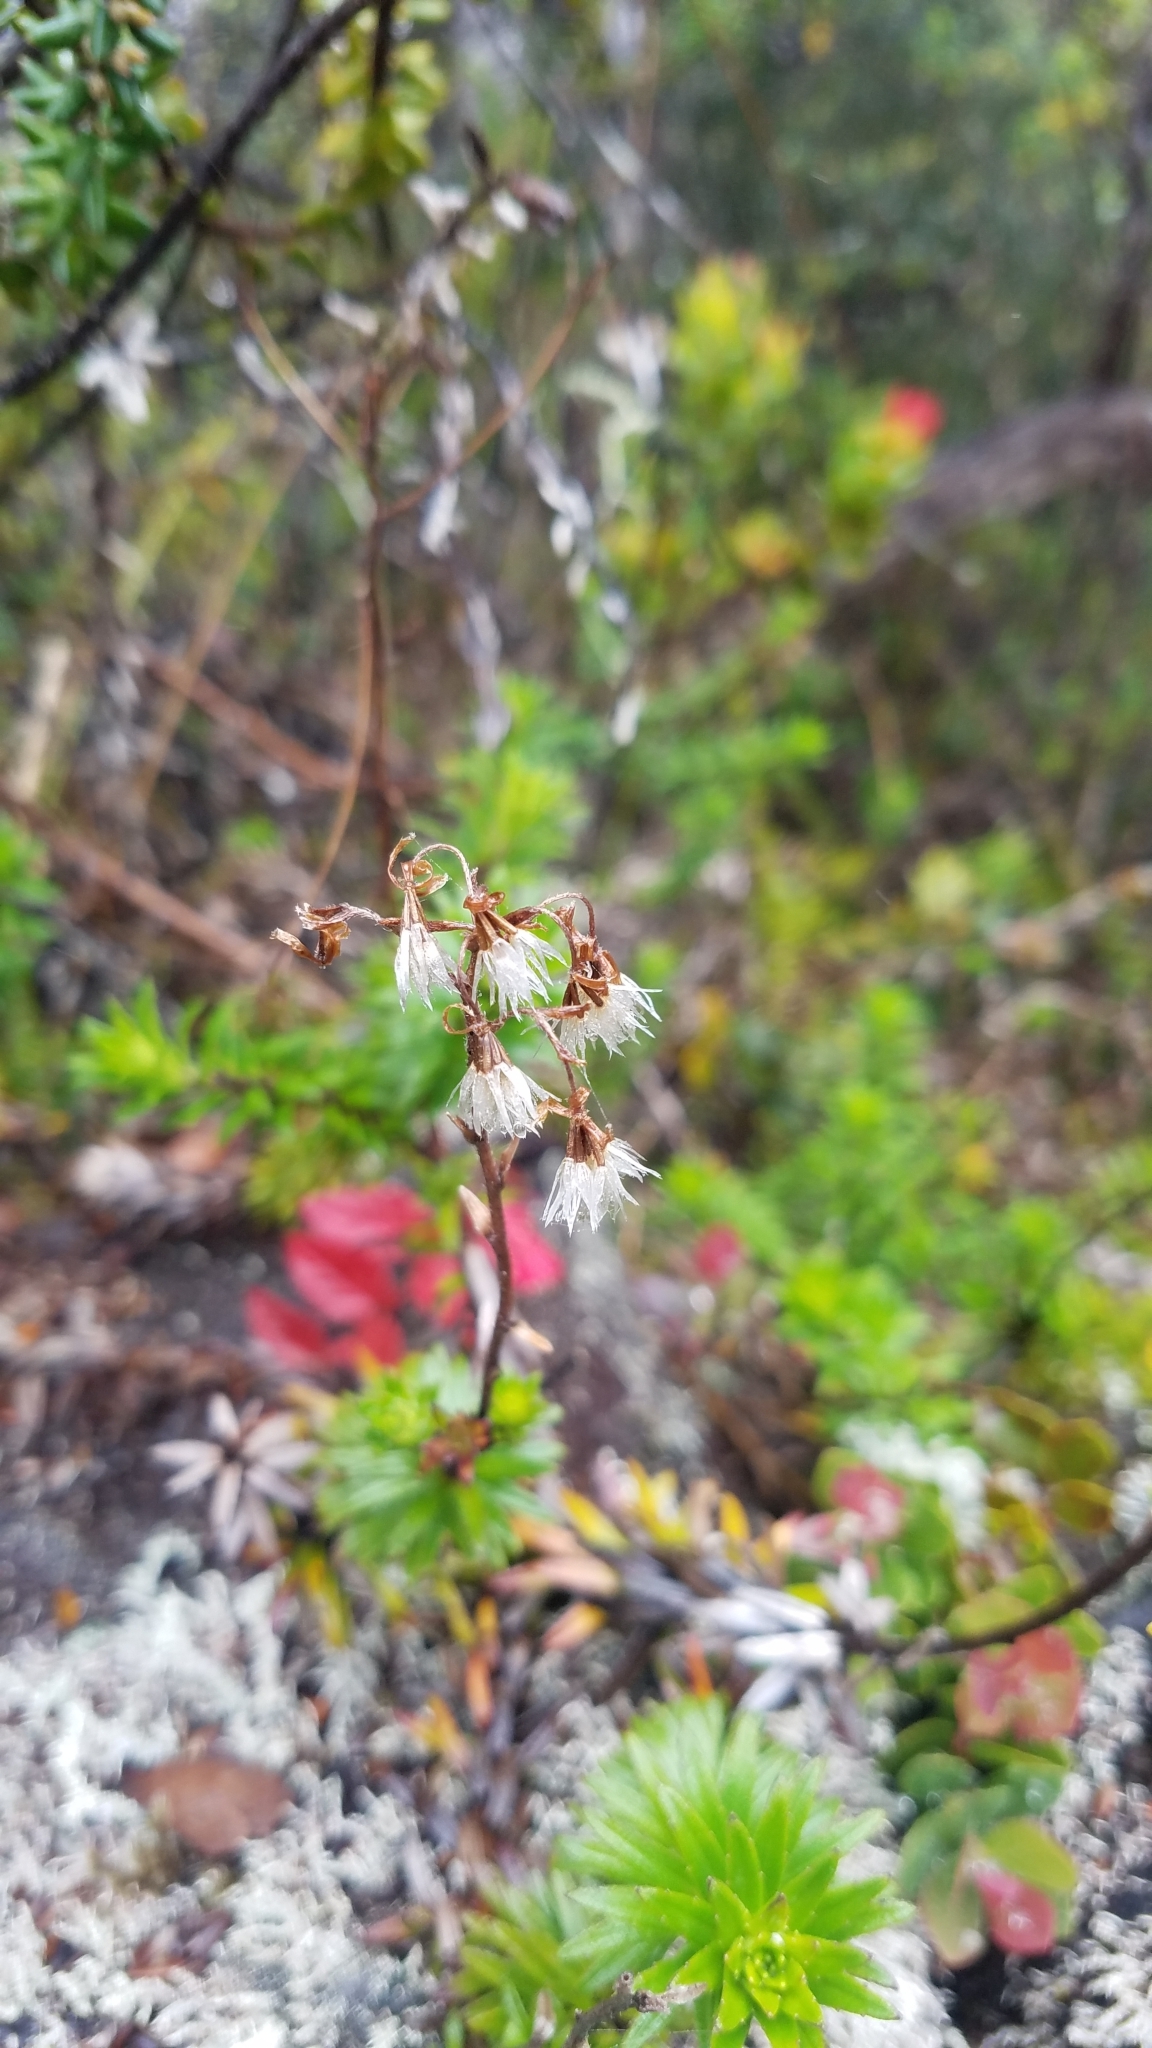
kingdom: Plantae
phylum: Tracheophyta
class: Magnoliopsida
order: Asterales
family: Asteraceae
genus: Dubautia
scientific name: Dubautia scabra
